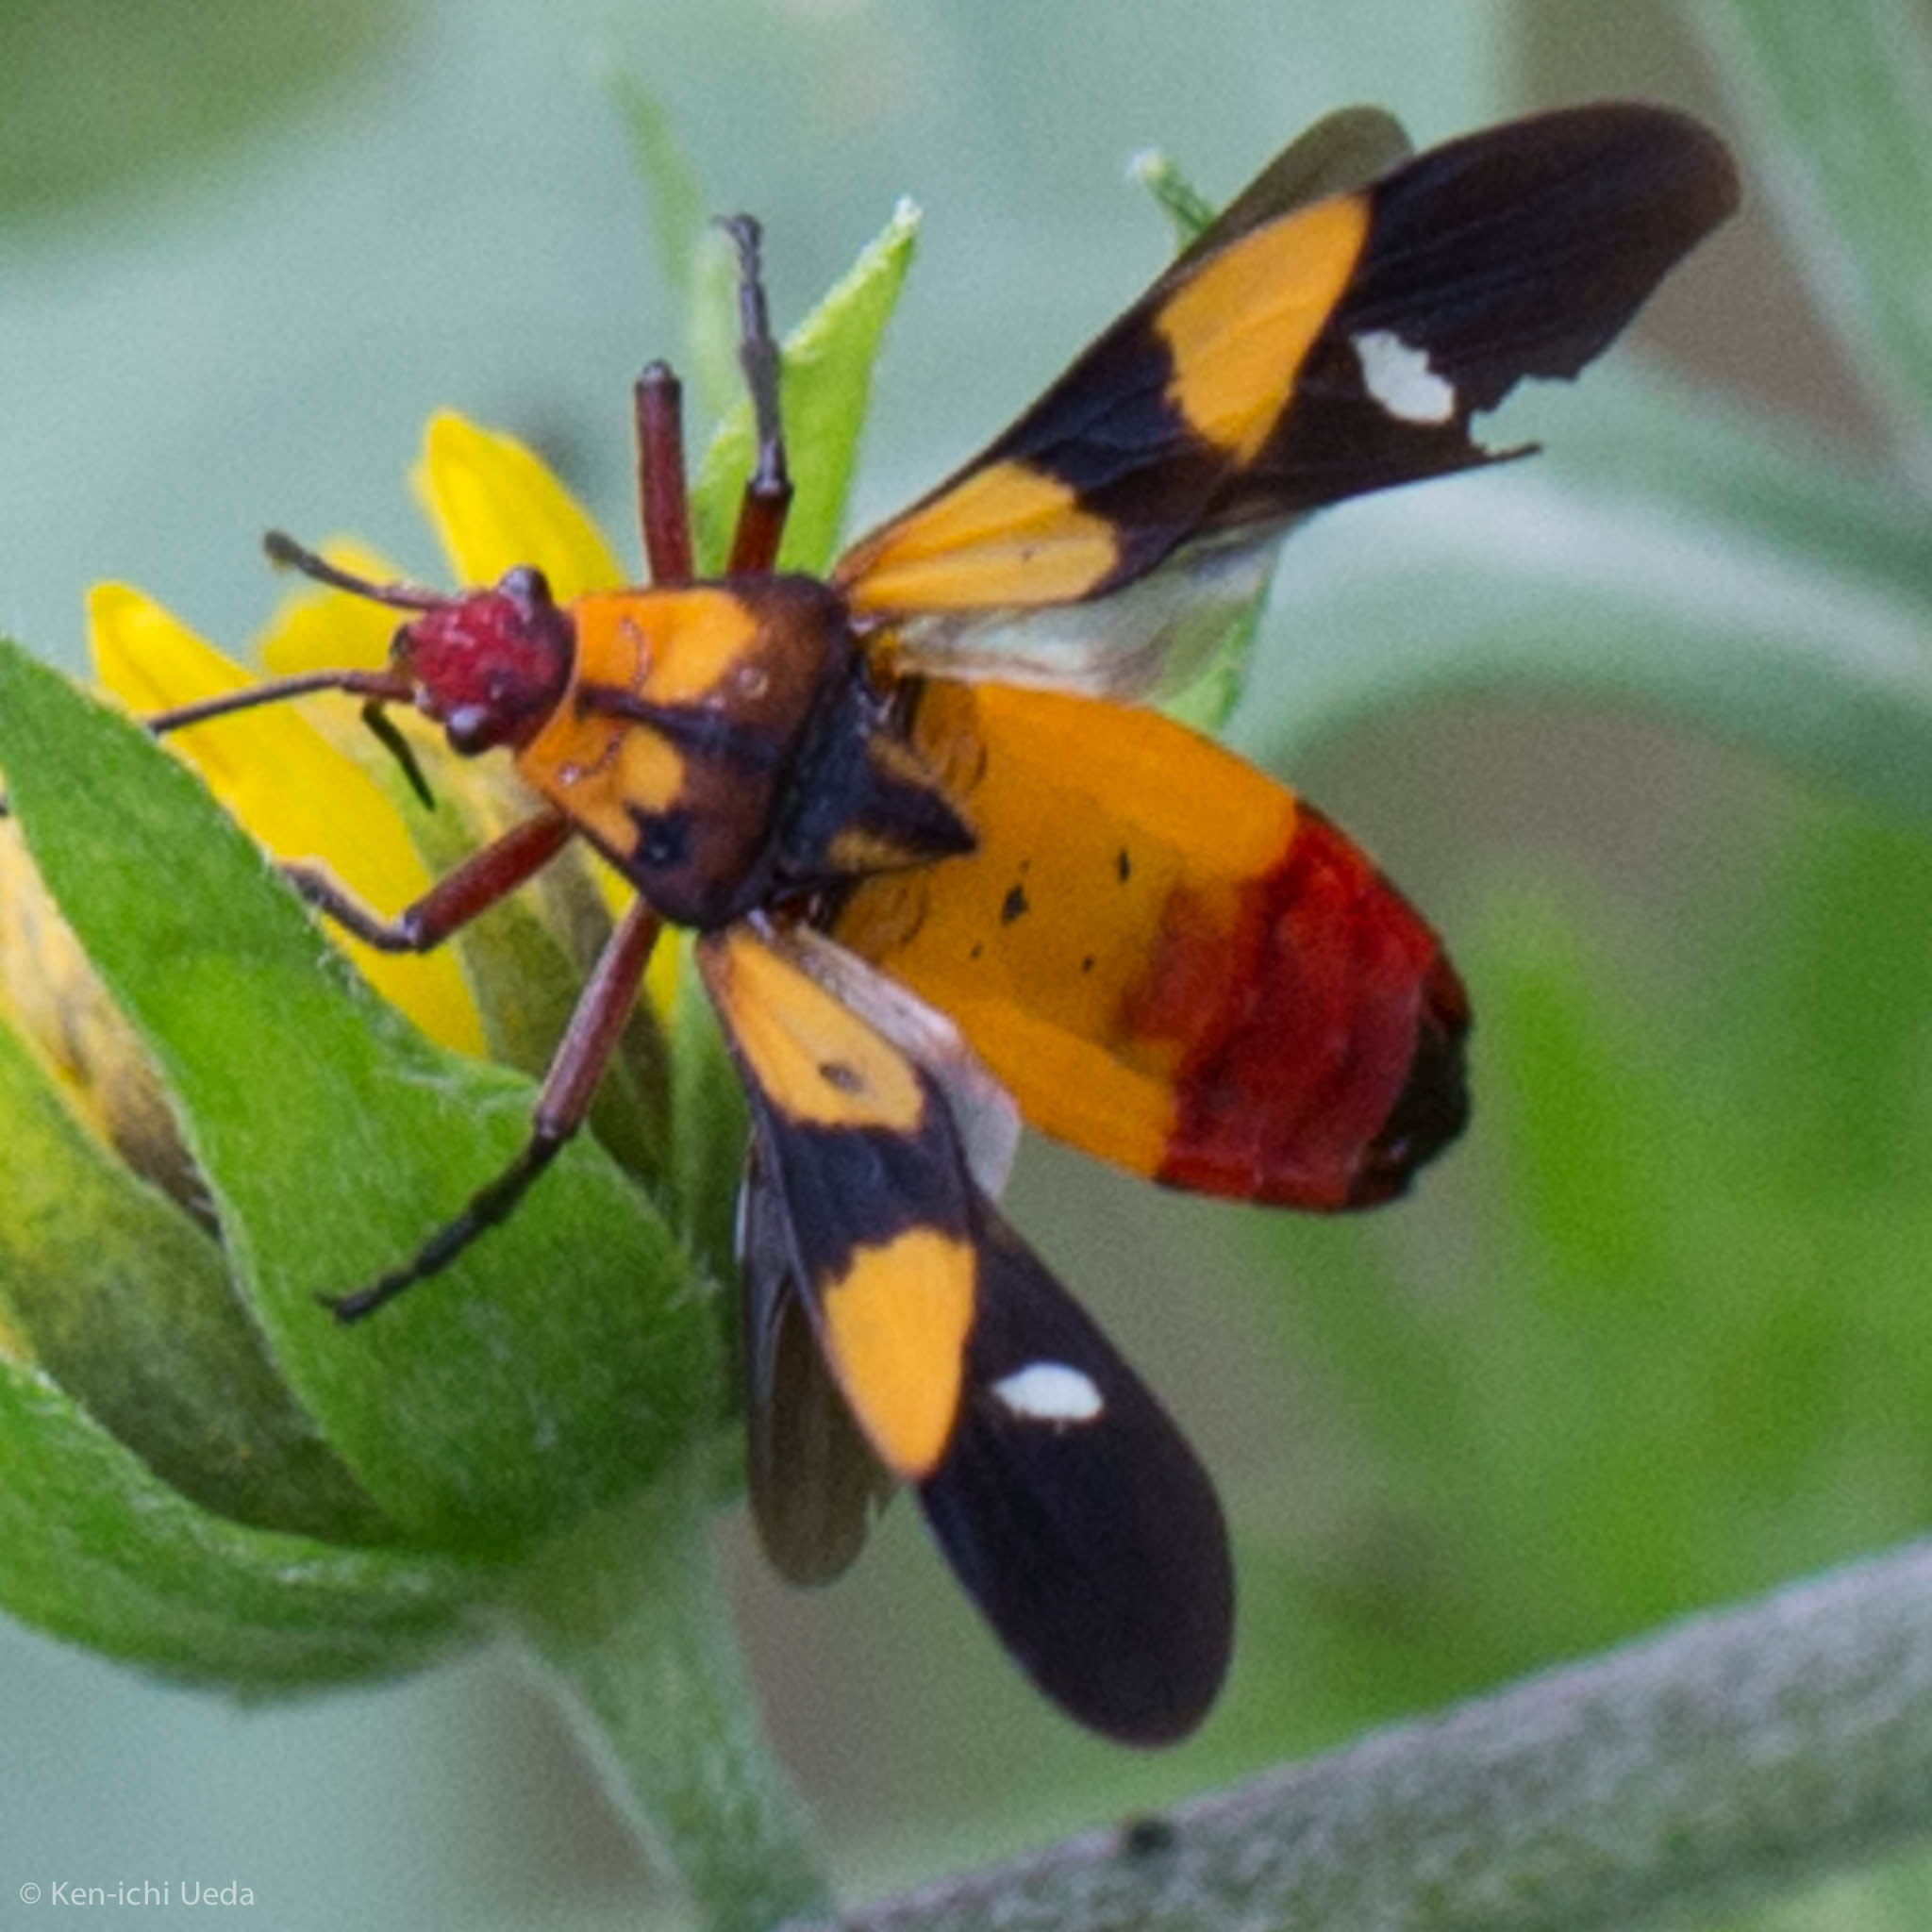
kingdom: Animalia
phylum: Arthropoda
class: Insecta
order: Hemiptera
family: Lygaeidae
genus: Oncopeltus
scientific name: Oncopeltus sexmaculatus
